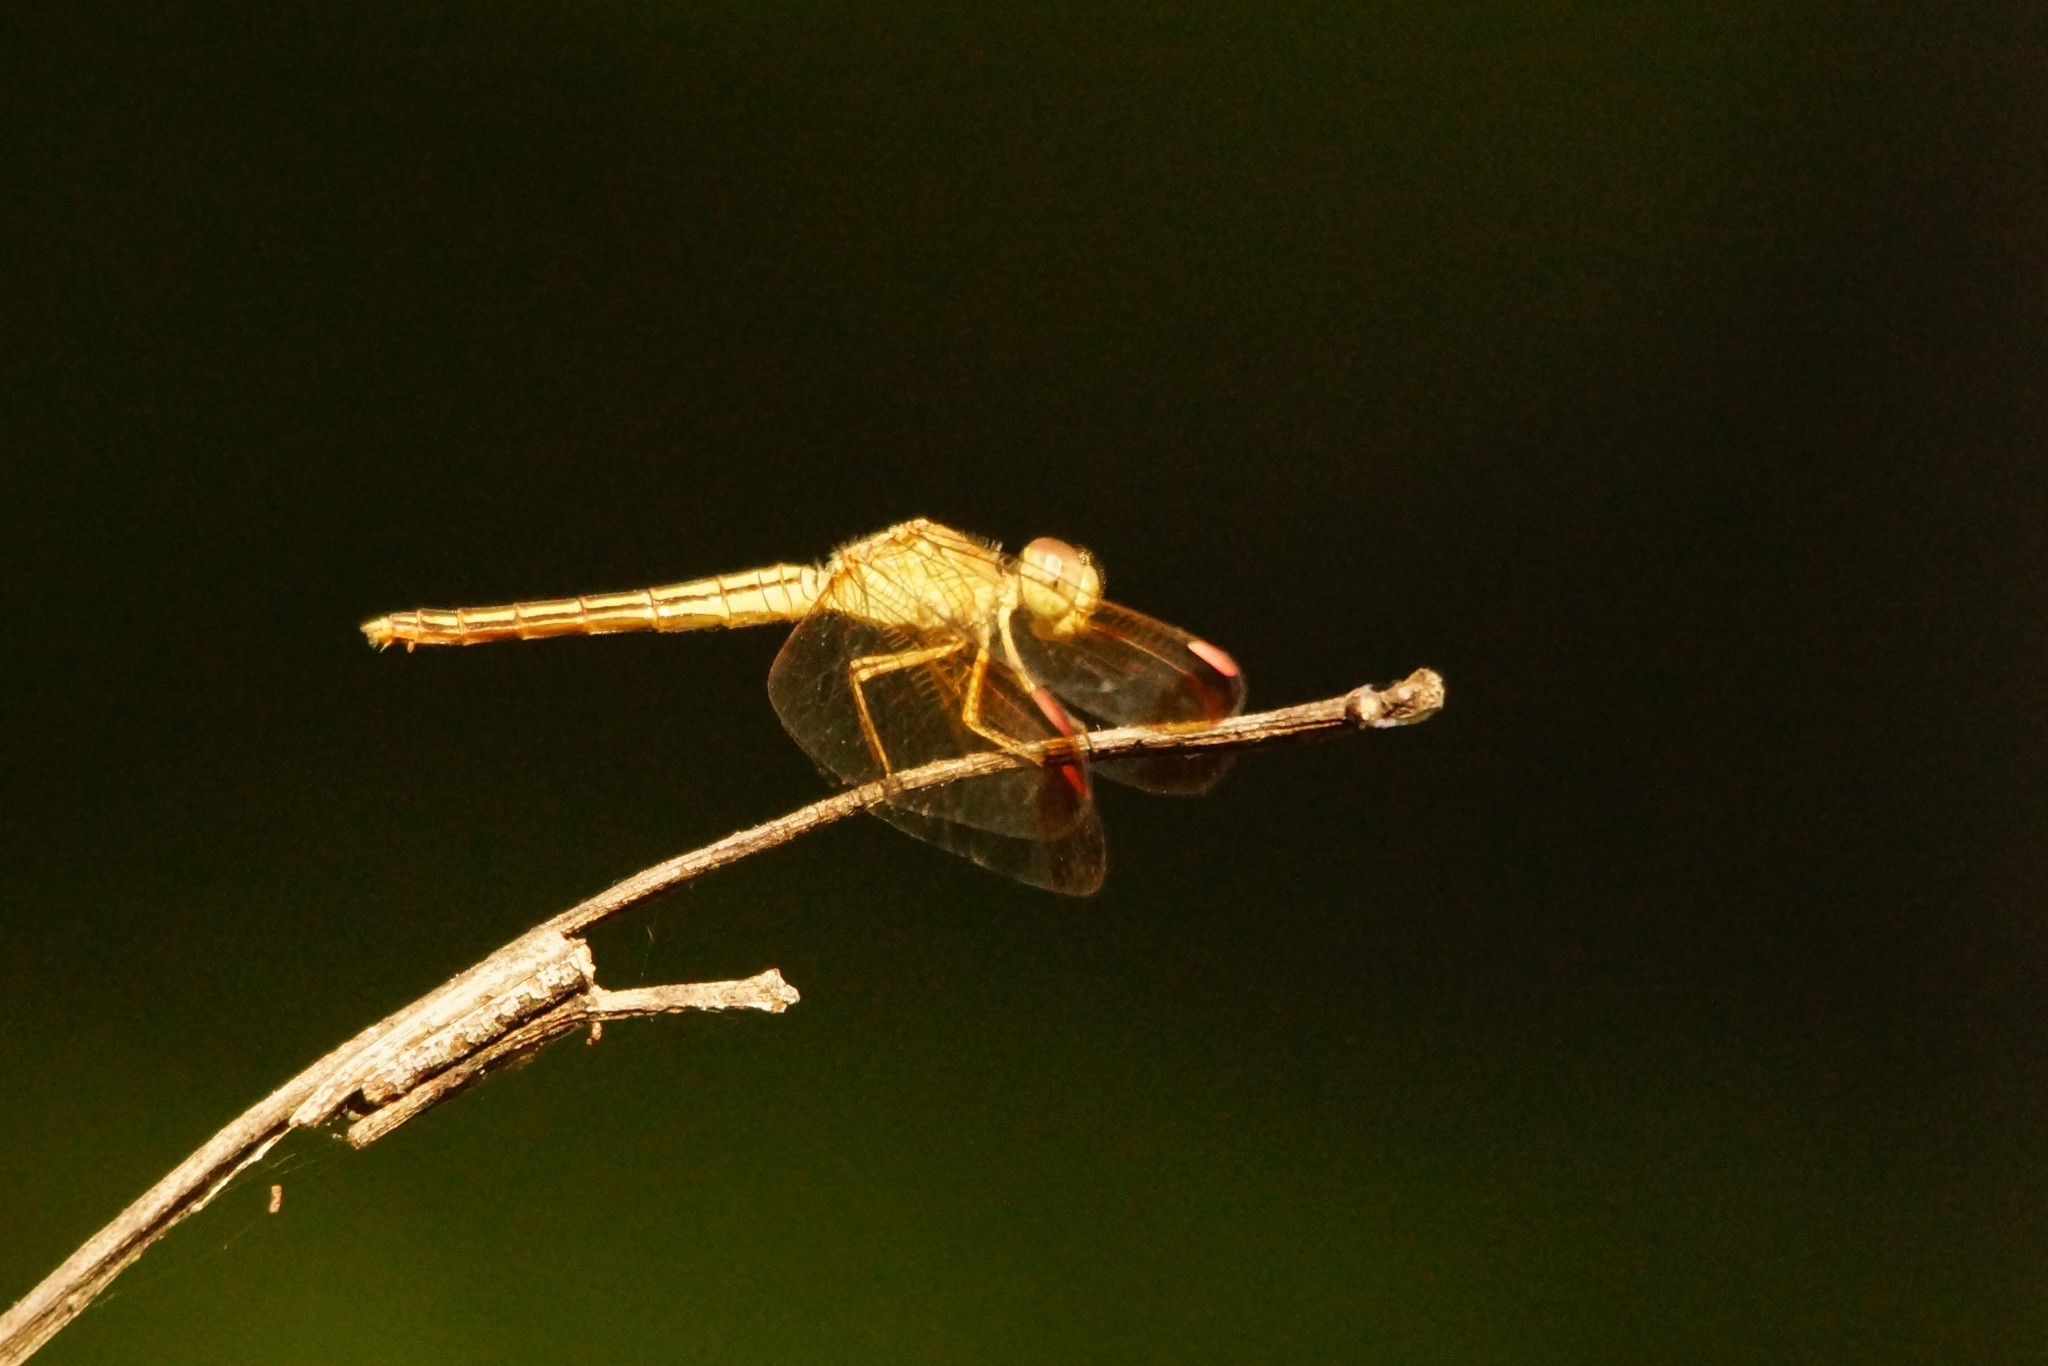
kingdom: Animalia
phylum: Arthropoda
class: Insecta
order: Odonata
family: Libellulidae
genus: Neurothemis
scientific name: Neurothemis stigmatizans
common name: Painted grasshawk
